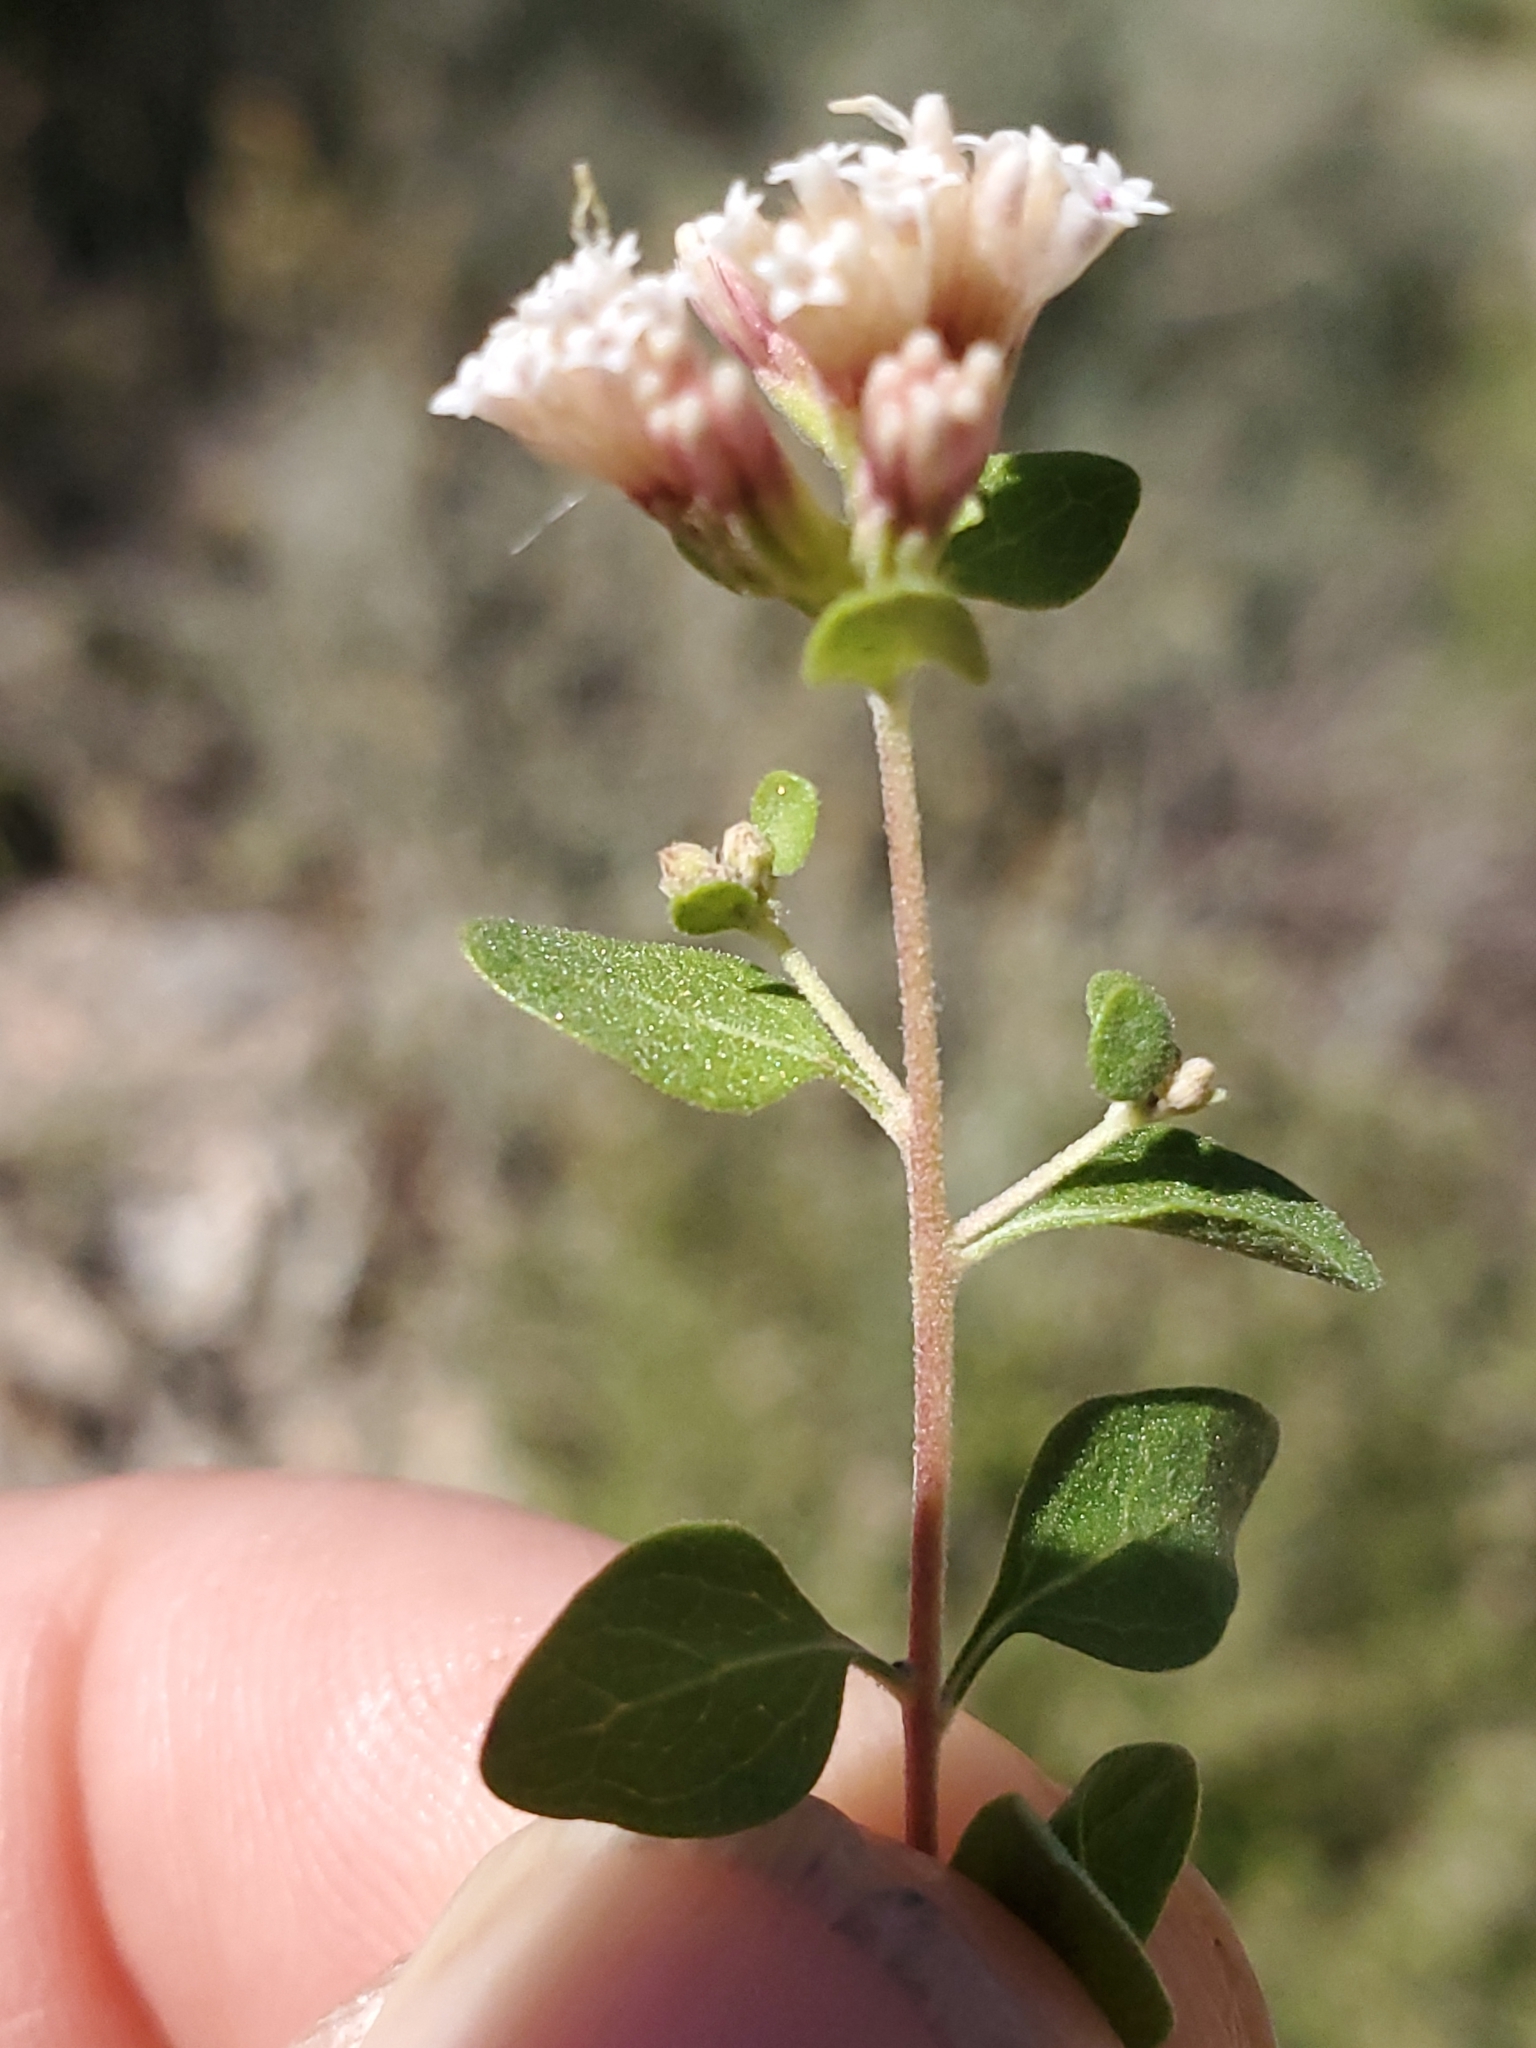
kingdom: Plantae
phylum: Tracheophyta
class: Magnoliopsida
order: Asterales
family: Asteraceae
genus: Ageratina
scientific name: Ageratina wrightii
